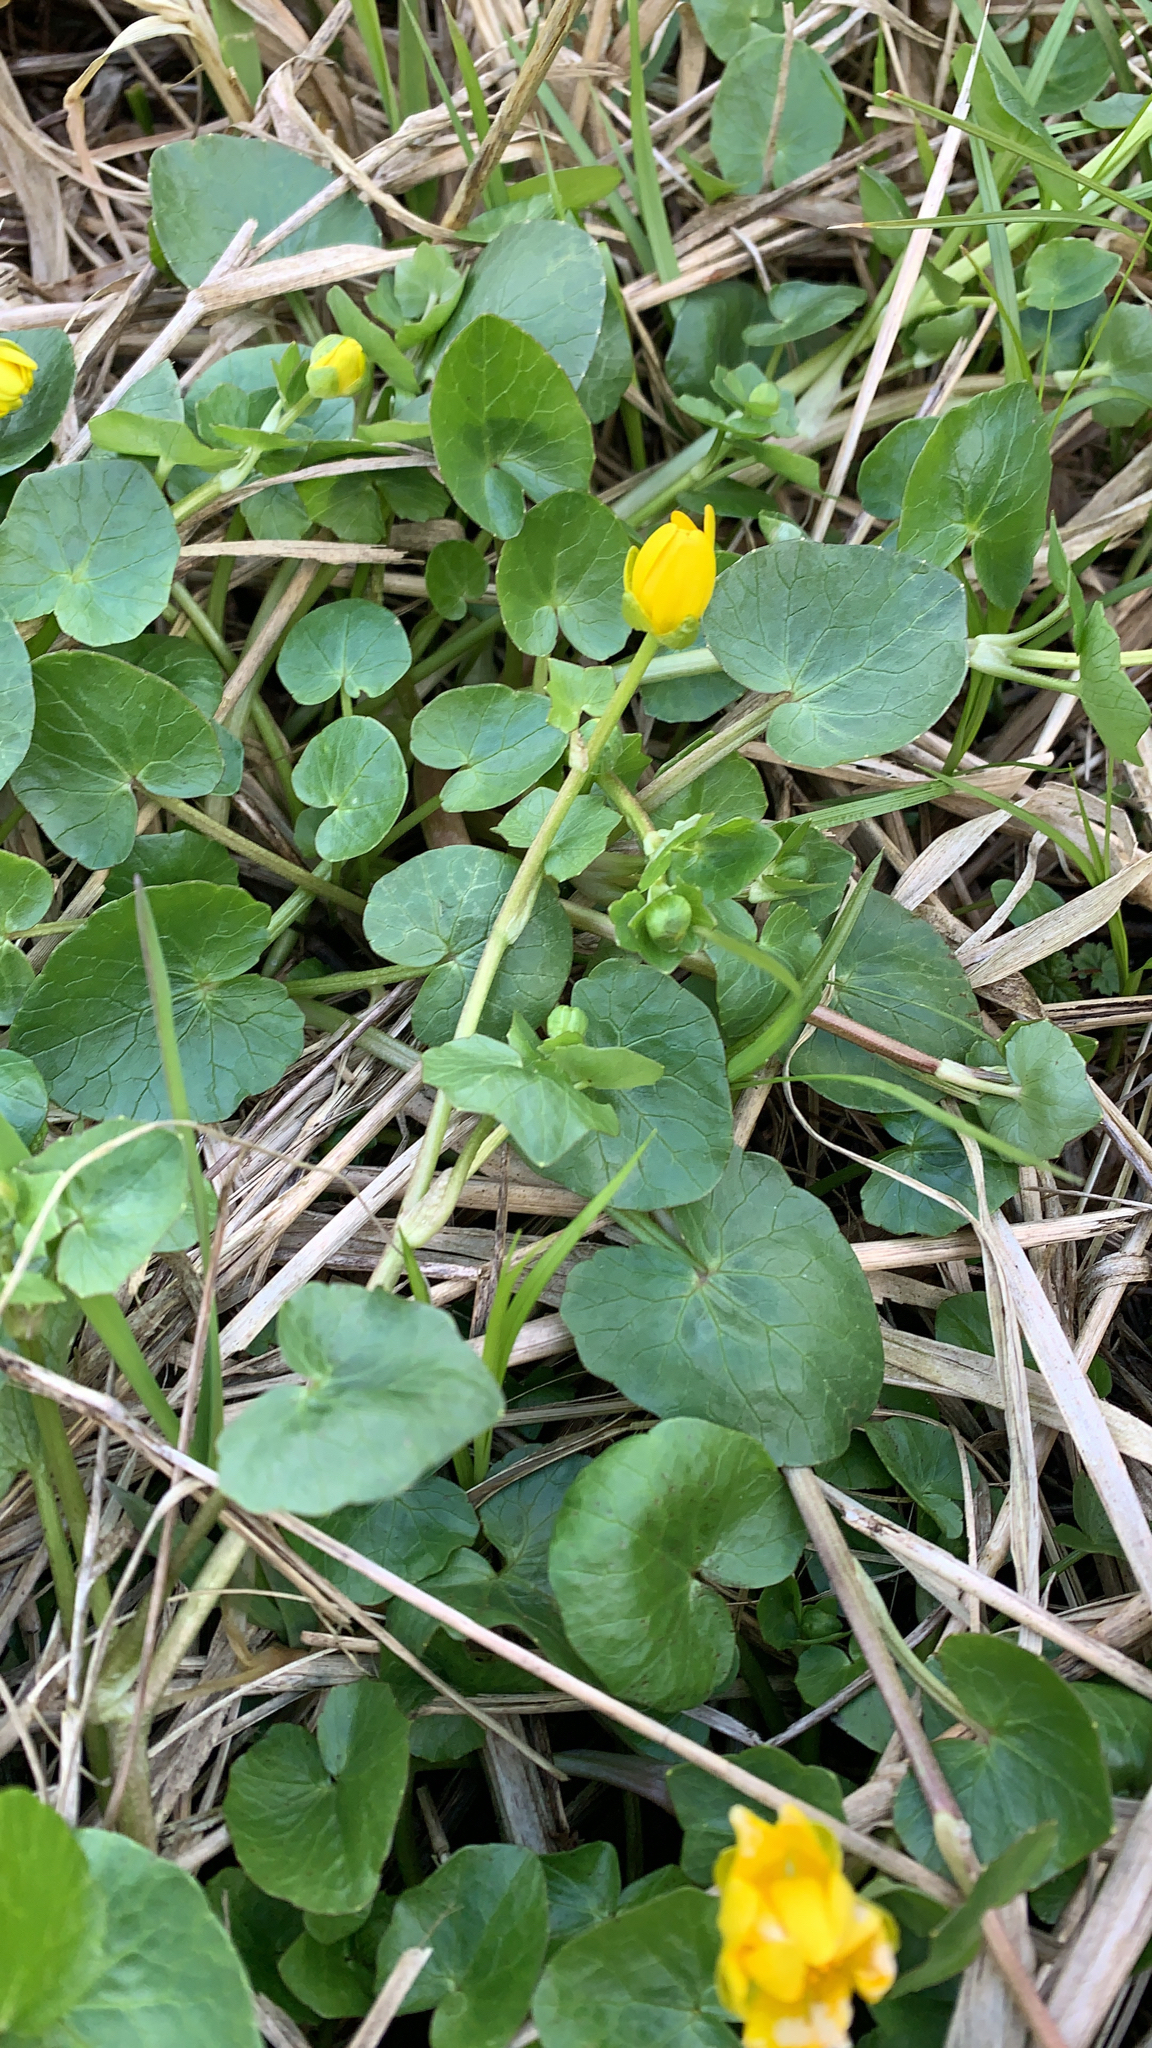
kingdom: Plantae
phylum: Tracheophyta
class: Magnoliopsida
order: Ranunculales
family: Ranunculaceae
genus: Ficaria
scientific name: Ficaria verna
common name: Lesser celandine
